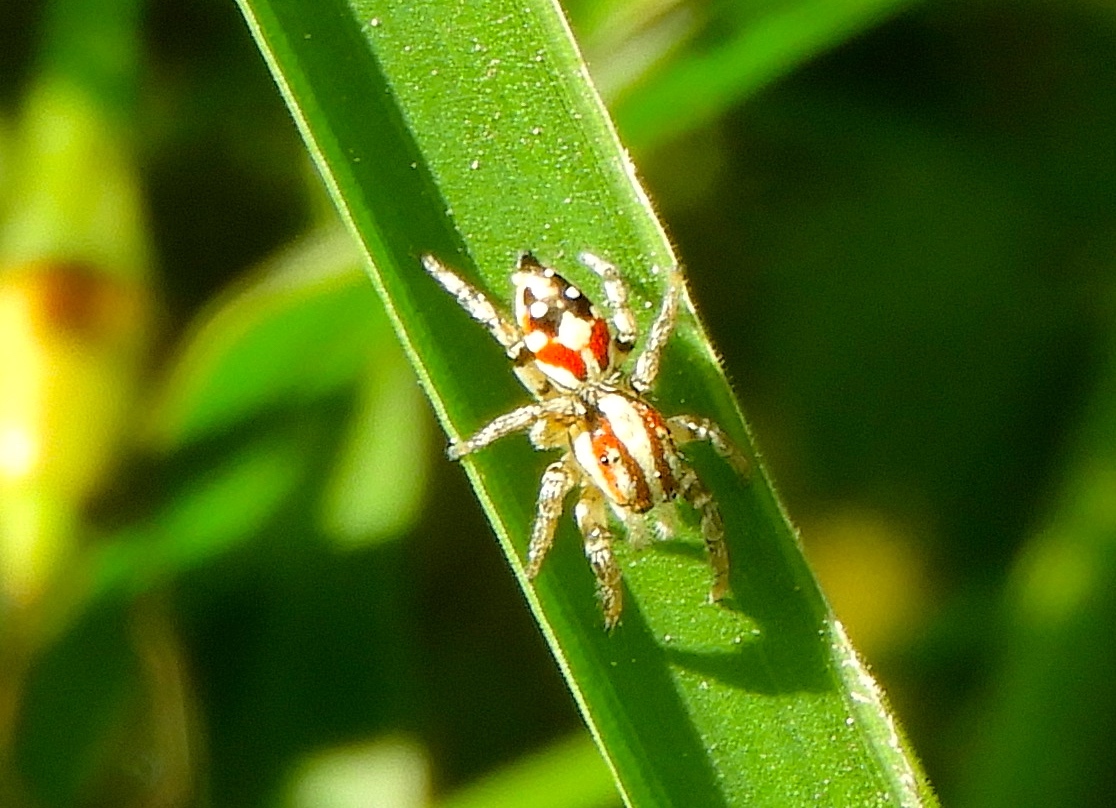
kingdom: Animalia
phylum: Arthropoda
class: Arachnida
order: Araneae
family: Salticidae
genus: Nycerella
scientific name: Nycerella delecta
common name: Jumping spiders
